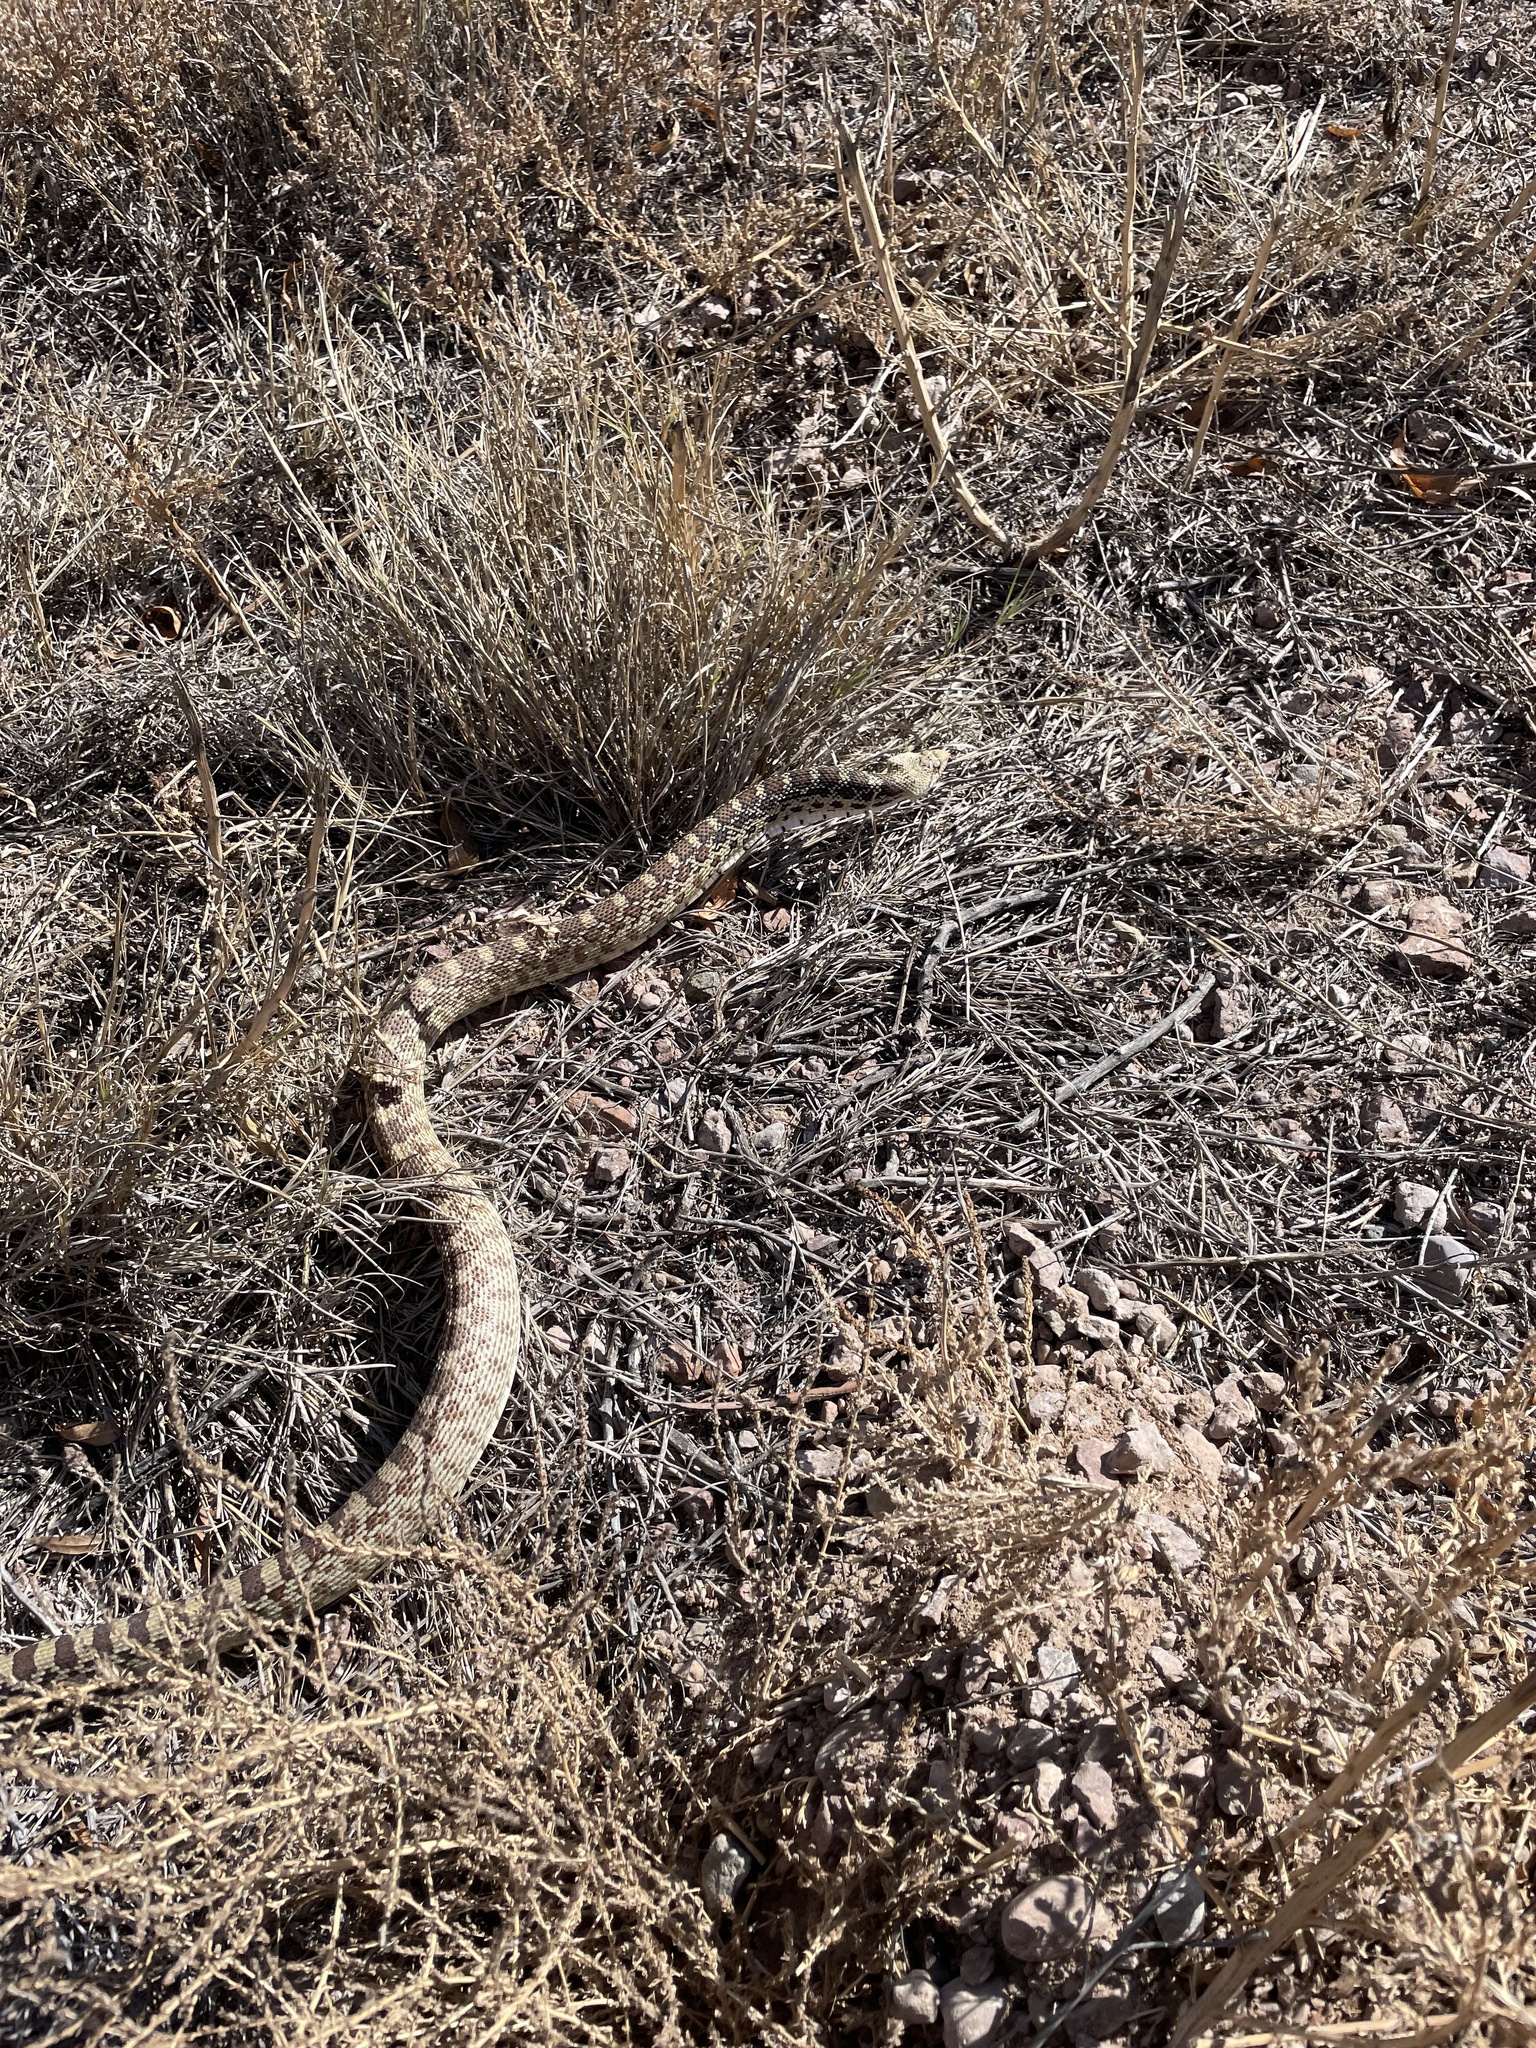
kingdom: Animalia
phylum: Chordata
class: Squamata
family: Colubridae
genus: Pituophis
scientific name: Pituophis catenifer
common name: Gopher snake
